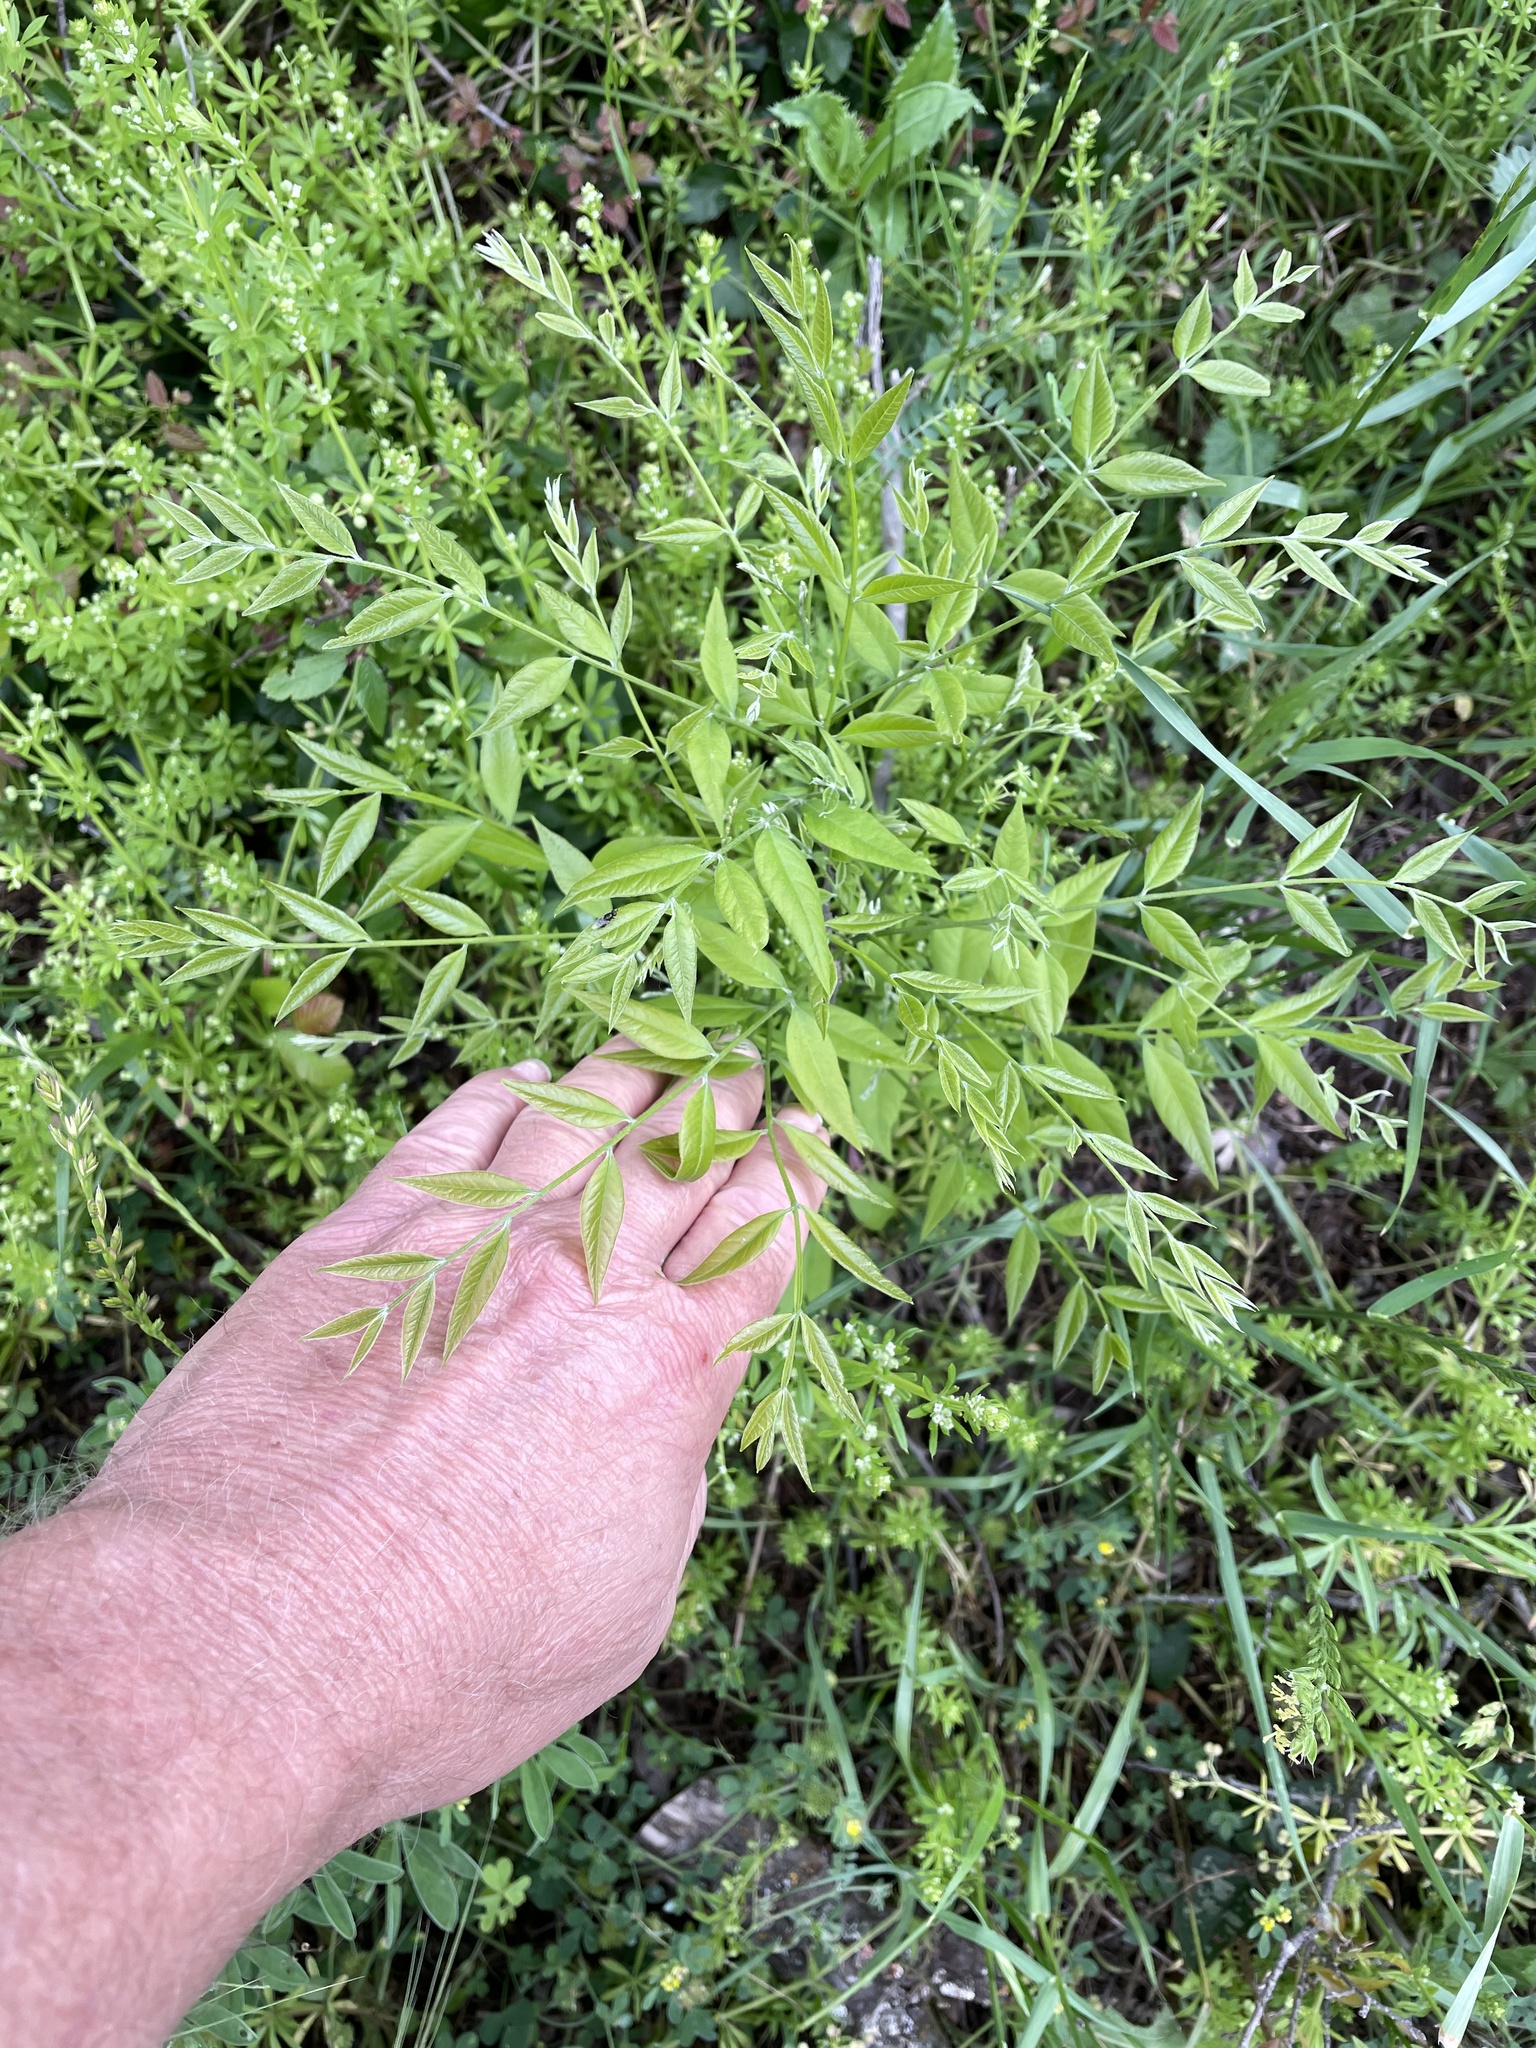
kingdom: Plantae
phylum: Tracheophyta
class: Magnoliopsida
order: Sapindales
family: Sapindaceae
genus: Sapindus
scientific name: Sapindus drummondii
